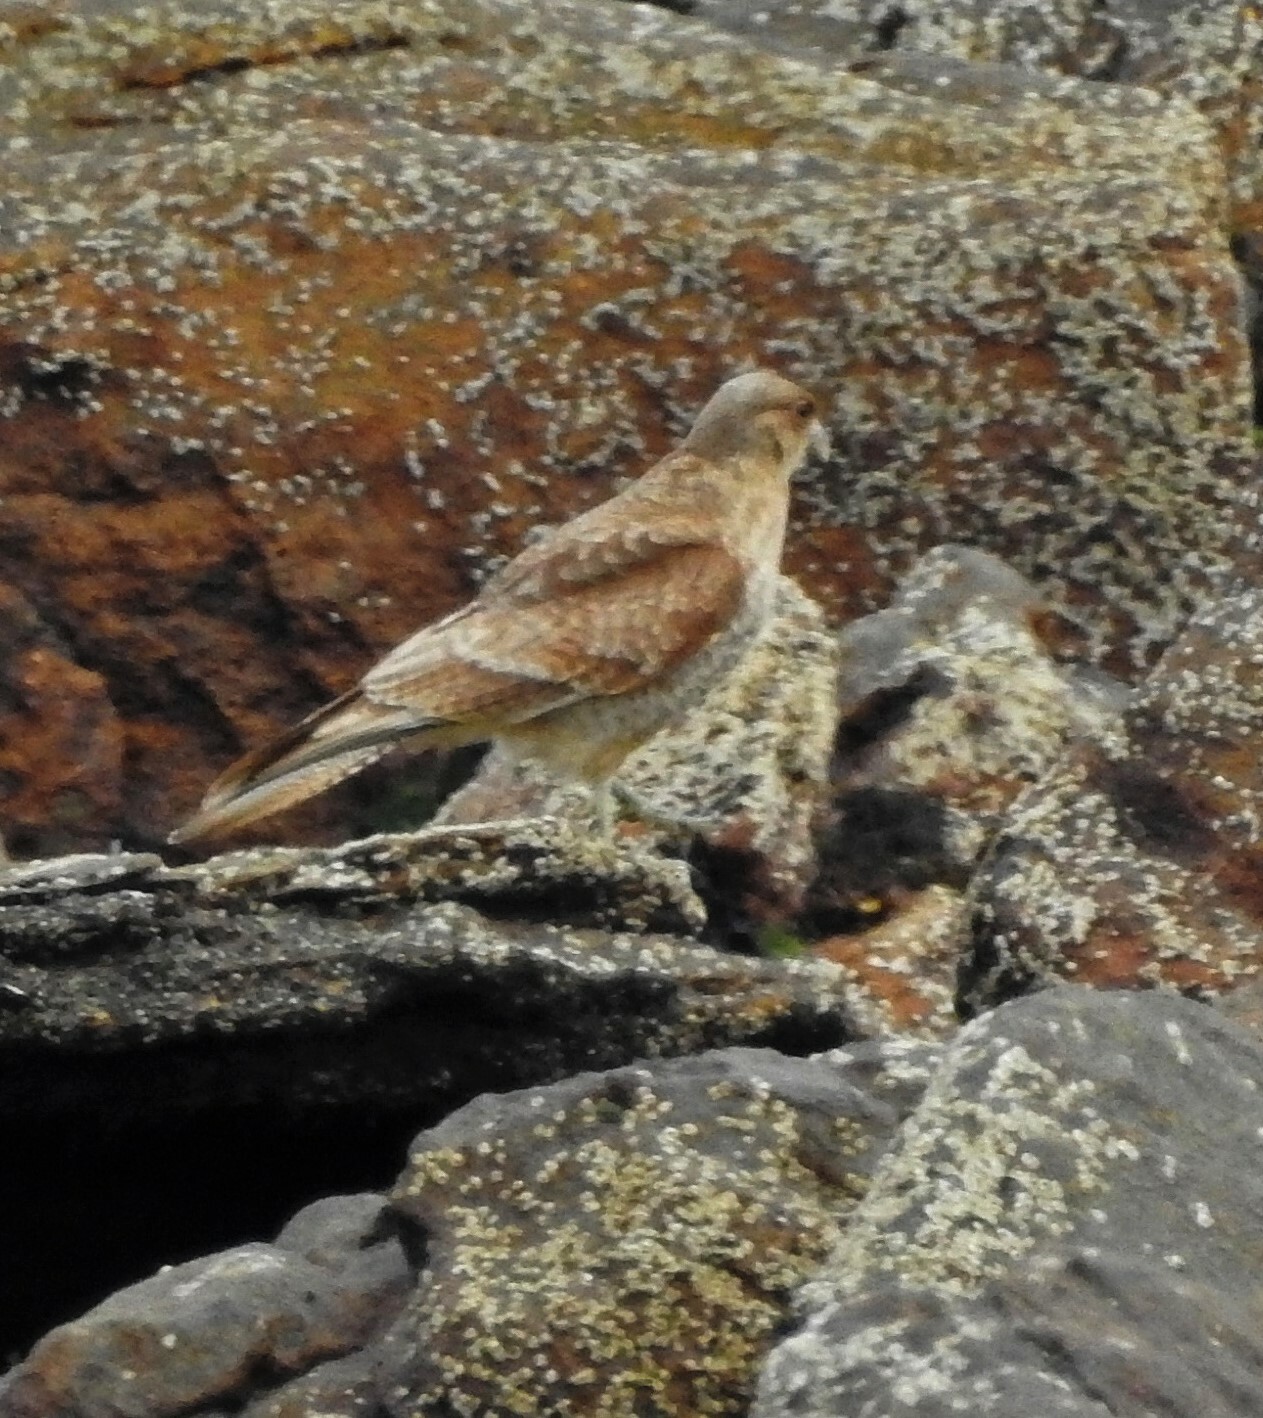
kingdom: Animalia
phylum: Chordata
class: Aves
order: Falconiformes
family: Falconidae
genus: Daptrius
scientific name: Daptrius
